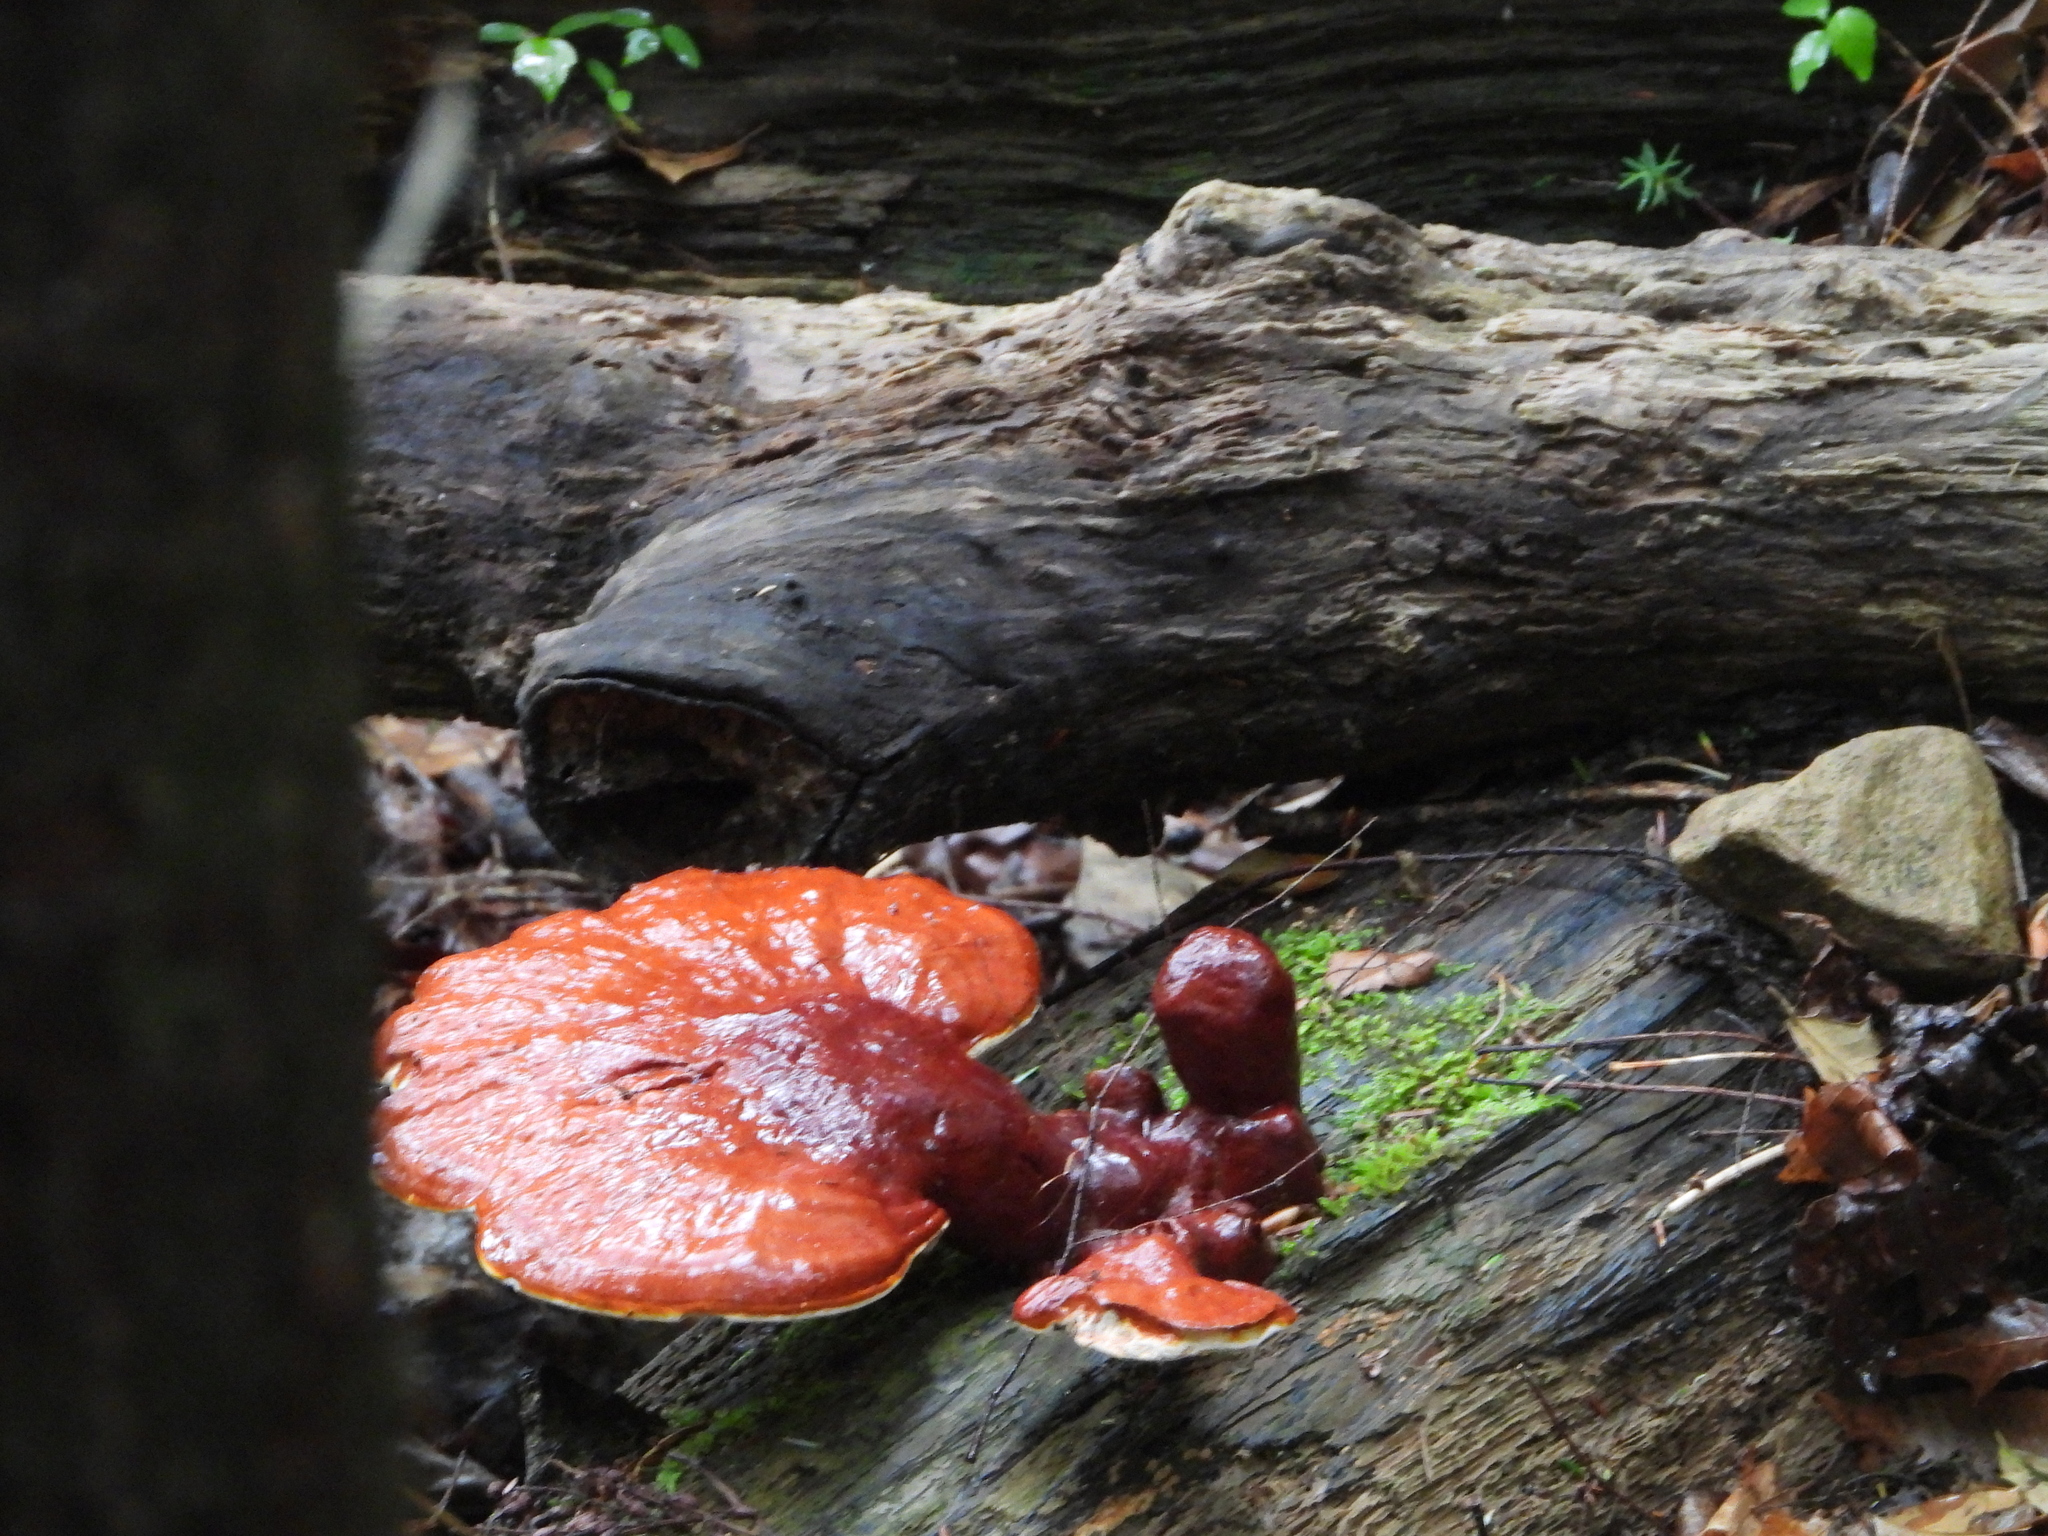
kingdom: Fungi
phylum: Basidiomycota
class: Agaricomycetes
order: Polyporales
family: Polyporaceae
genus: Ganoderma
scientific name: Ganoderma tsugae
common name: Hemlock varnish shelf
